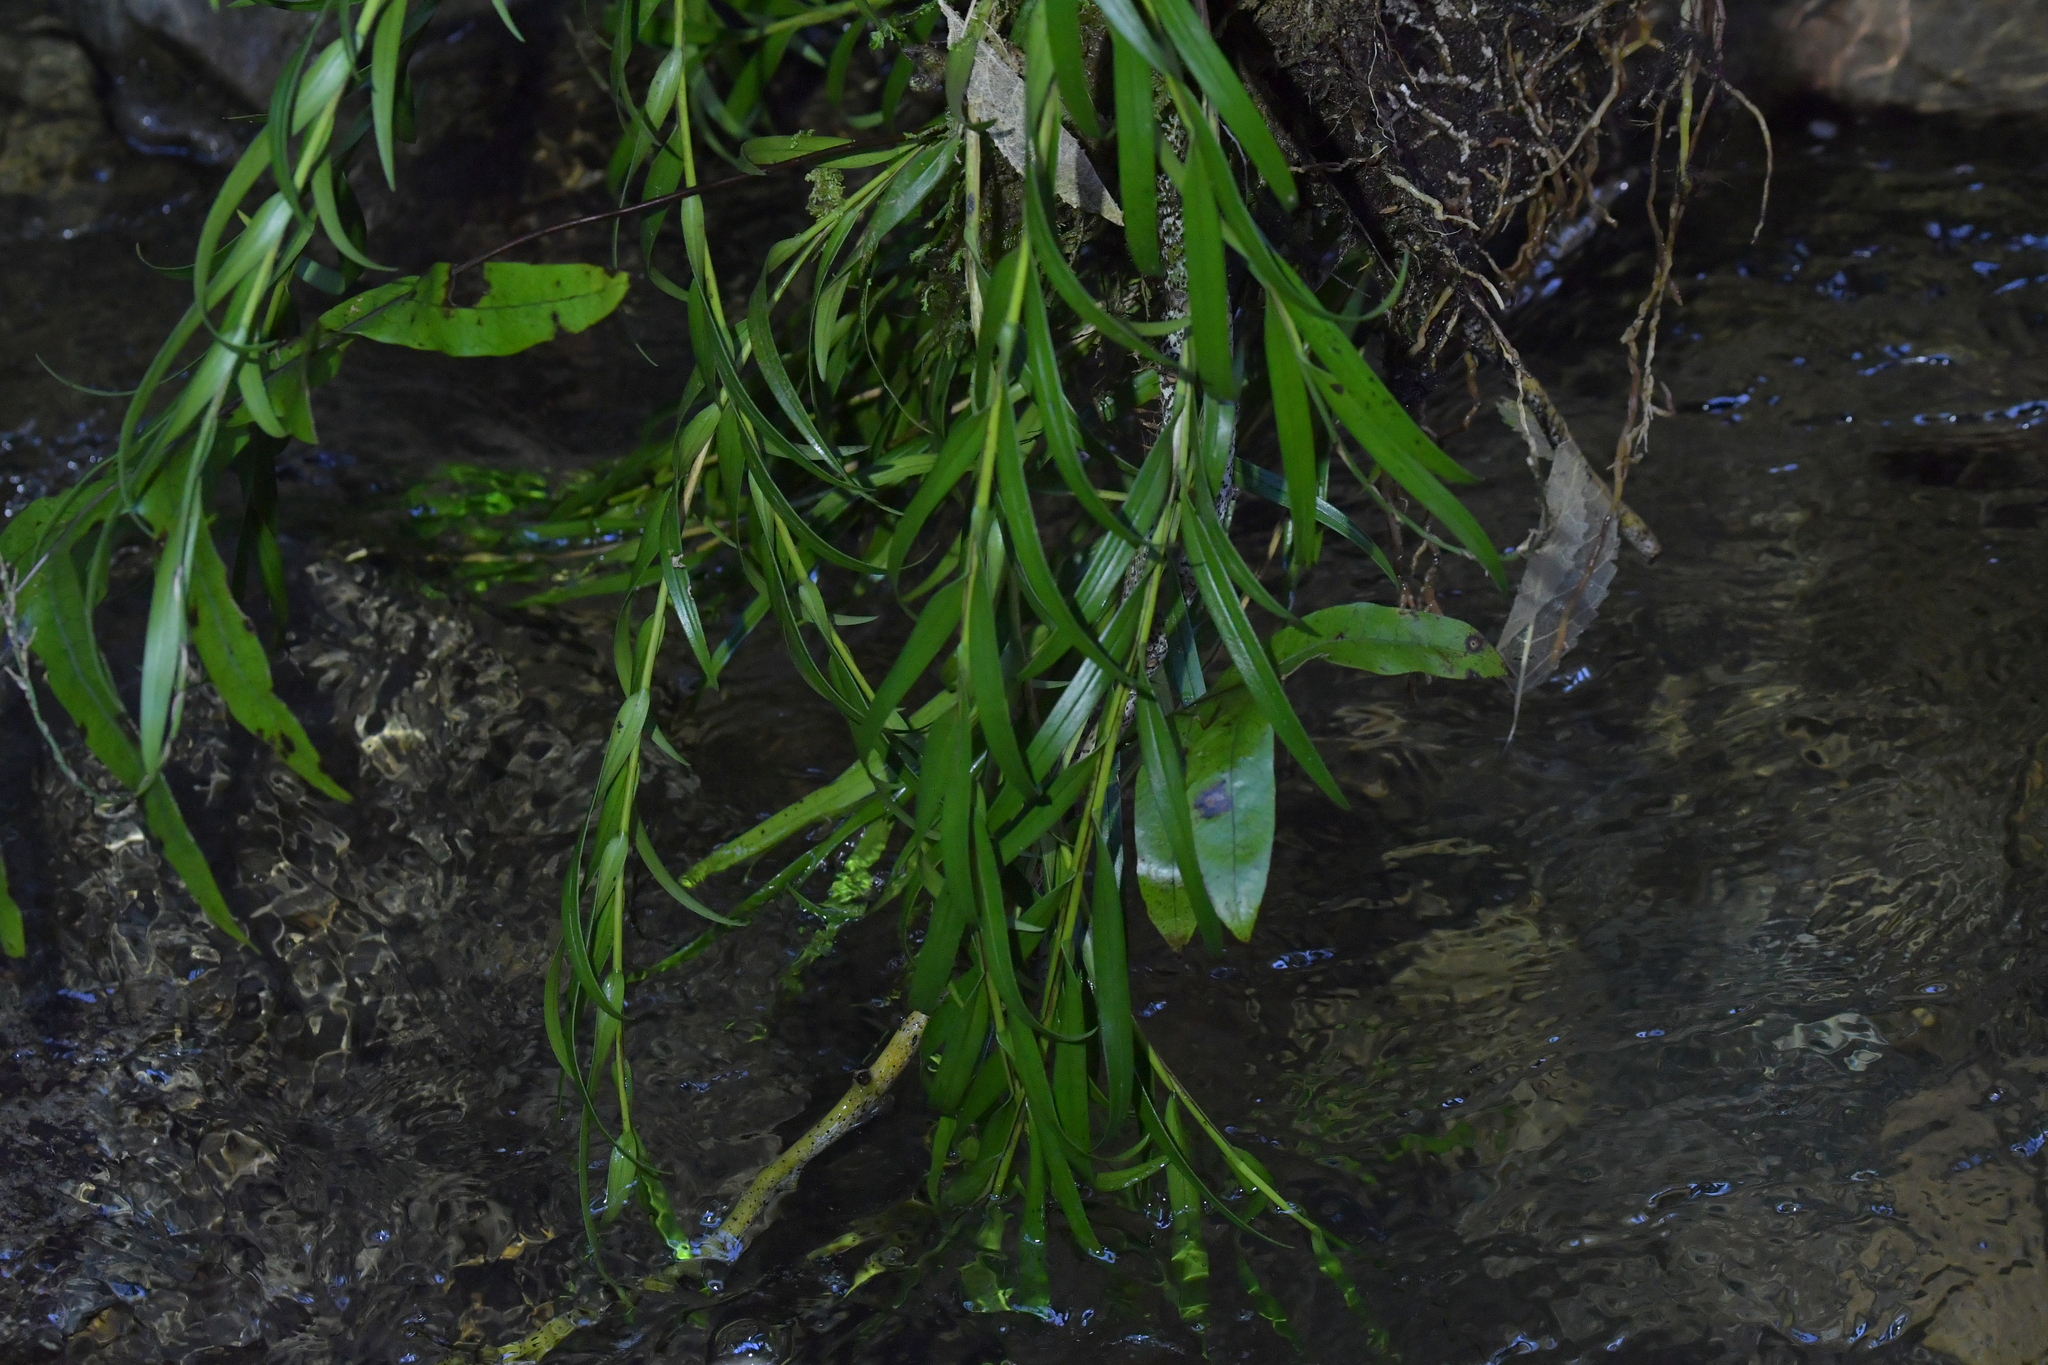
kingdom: Plantae
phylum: Tracheophyta
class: Liliopsida
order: Asparagales
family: Orchidaceae
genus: Earina
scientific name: Earina autumnalis
